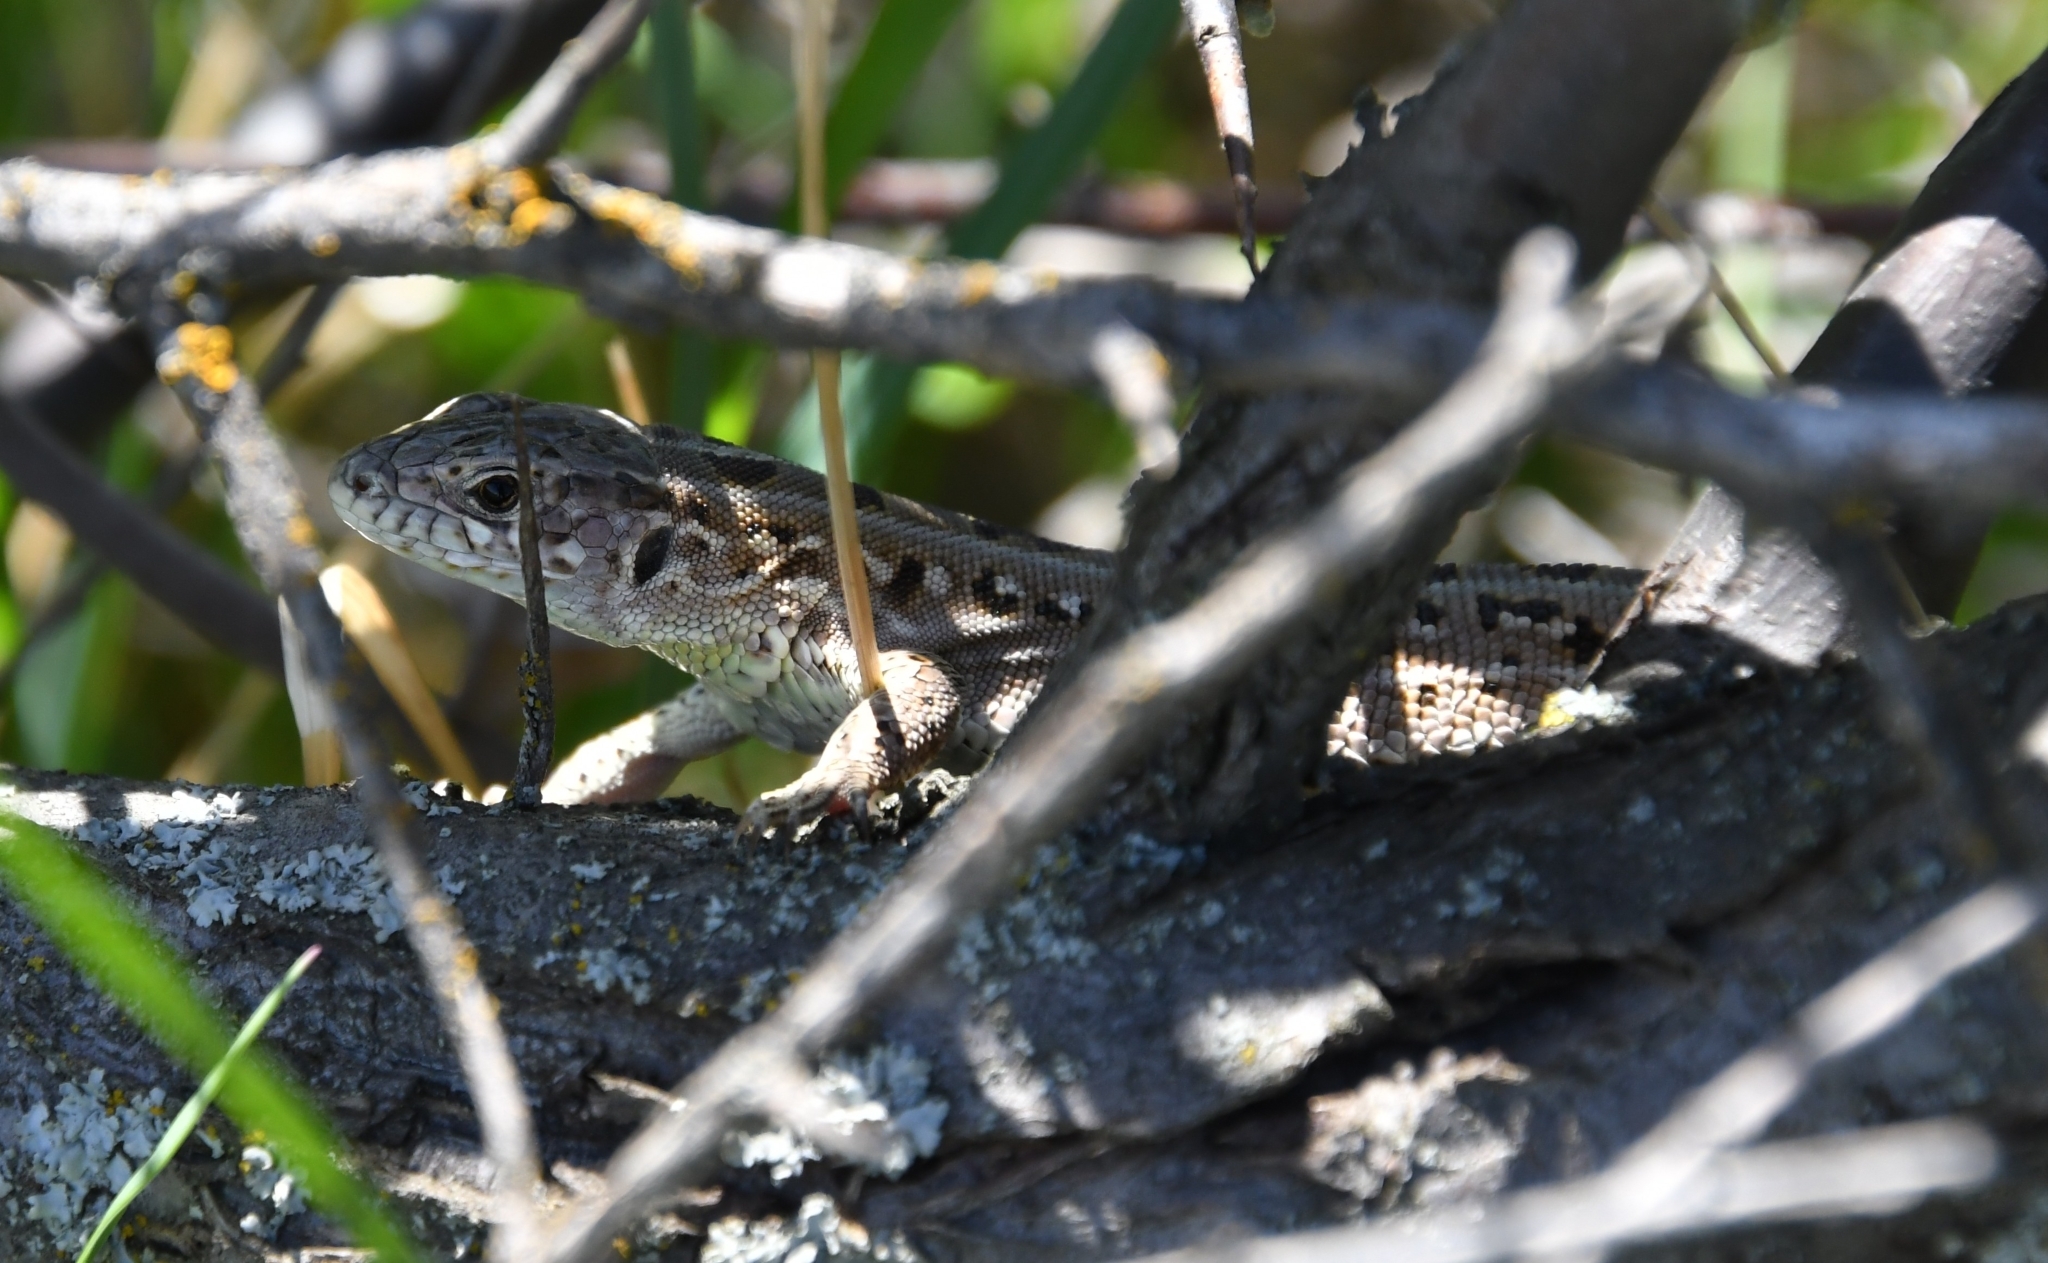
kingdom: Animalia
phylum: Chordata
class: Squamata
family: Lacertidae
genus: Lacerta
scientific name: Lacerta agilis
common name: Sand lizard
